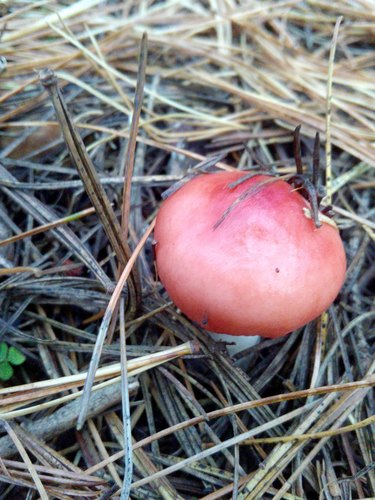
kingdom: Fungi
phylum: Basidiomycota
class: Agaricomycetes
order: Russulales
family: Russulaceae
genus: Russula
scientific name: Russula sanguinea
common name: Bloody brittlegill
